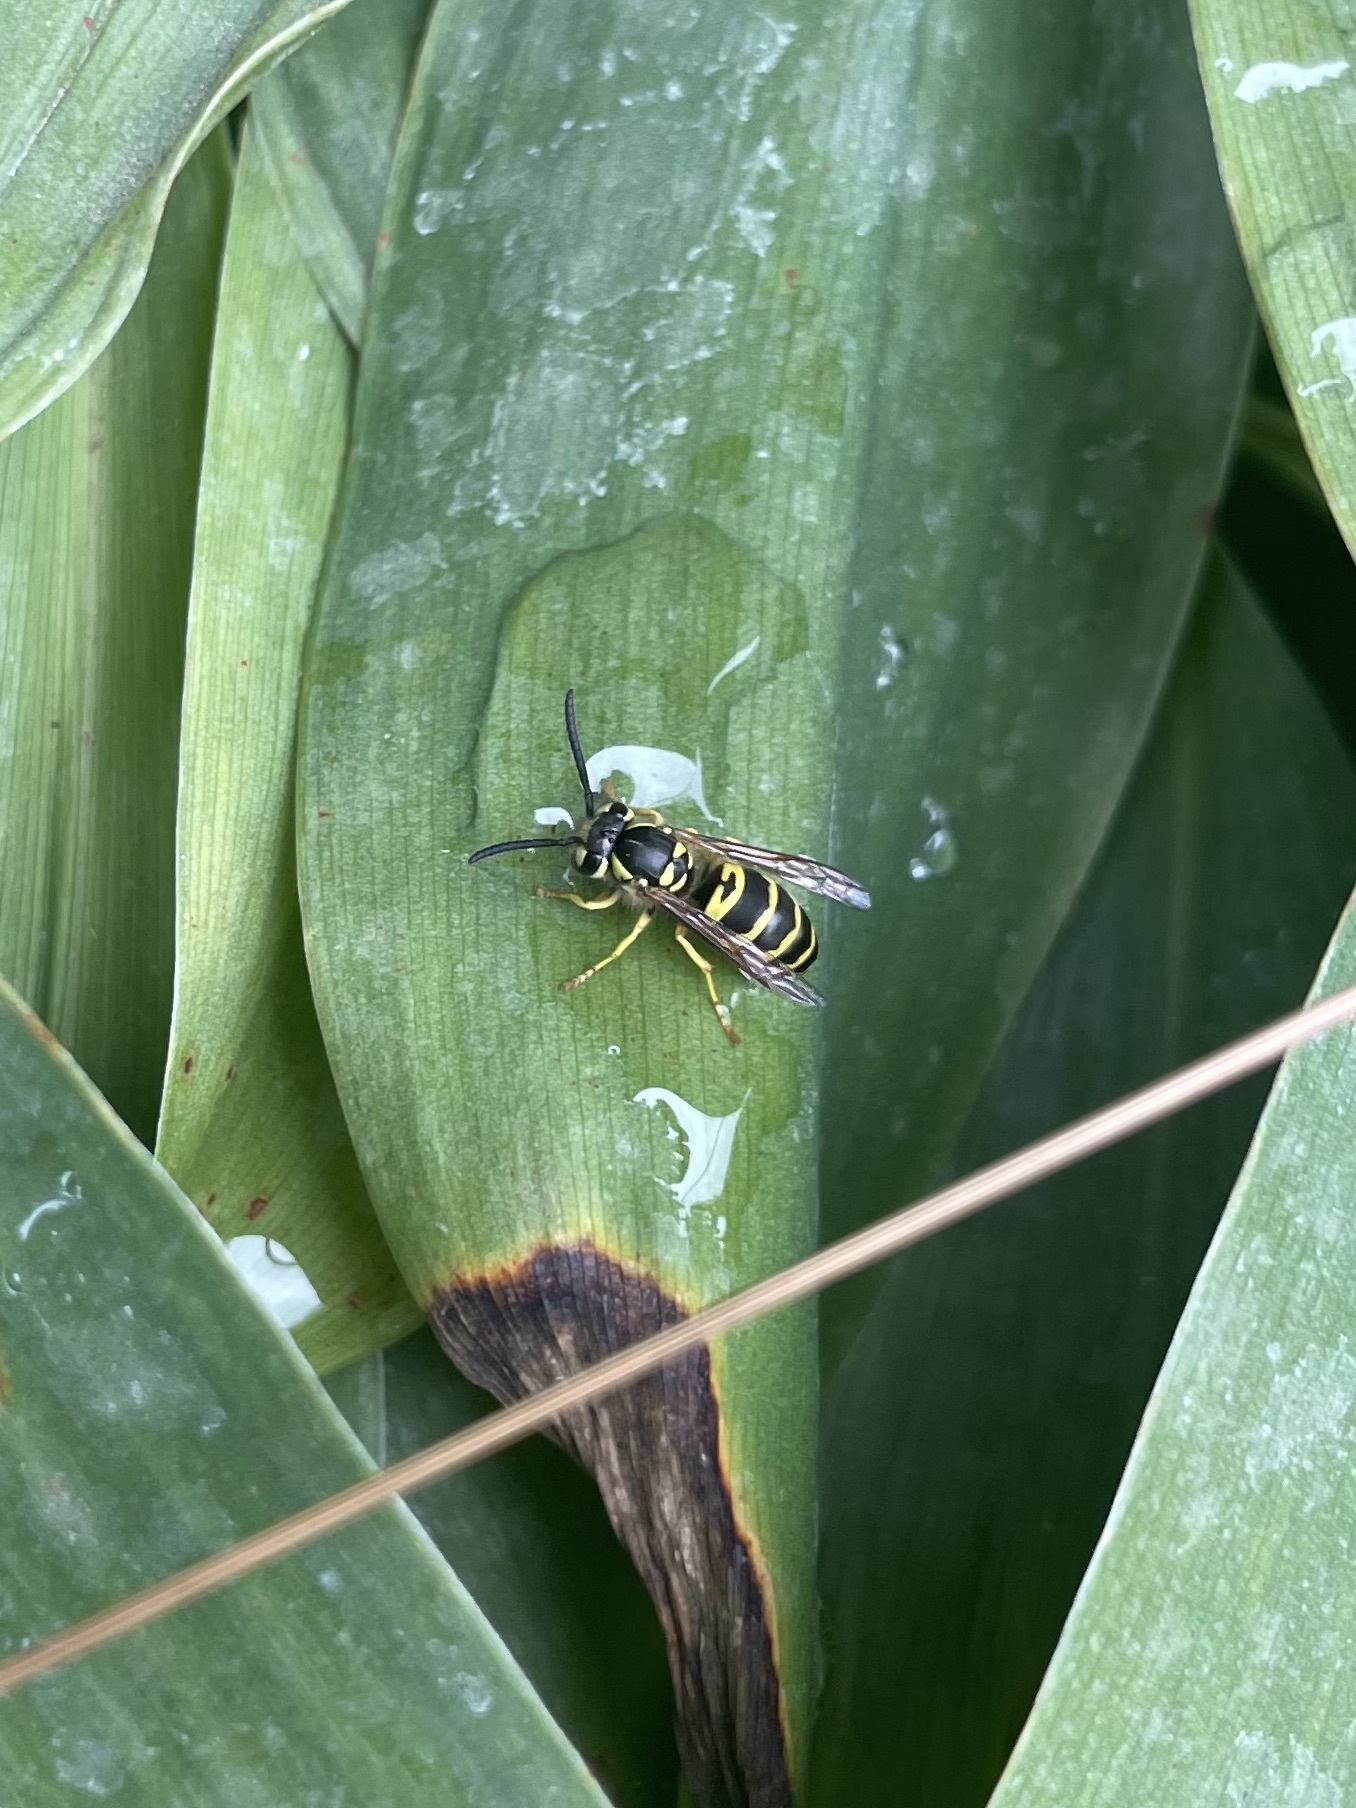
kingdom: Animalia
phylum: Arthropoda
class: Insecta
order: Hymenoptera
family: Vespidae
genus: Vespula
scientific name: Vespula maculifrons
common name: Eastern yellowjacket
